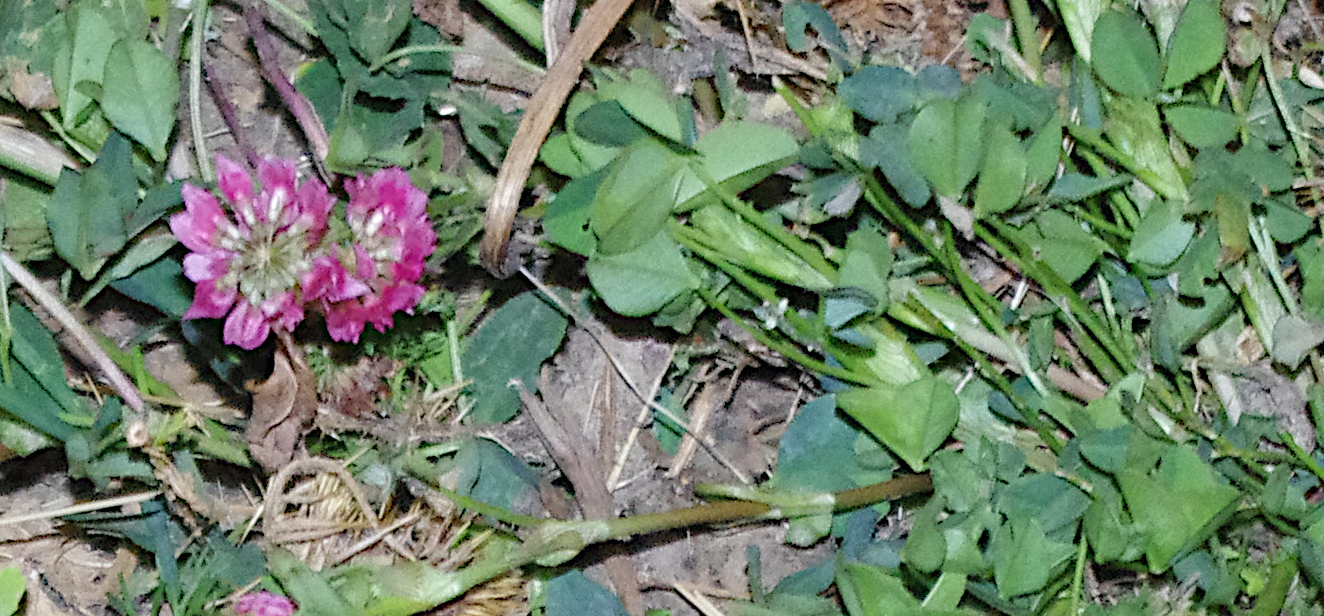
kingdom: Plantae
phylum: Tracheophyta
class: Magnoliopsida
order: Fabales
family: Fabaceae
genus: Trifolium
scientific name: Trifolium hybridum
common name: Alsike clover
